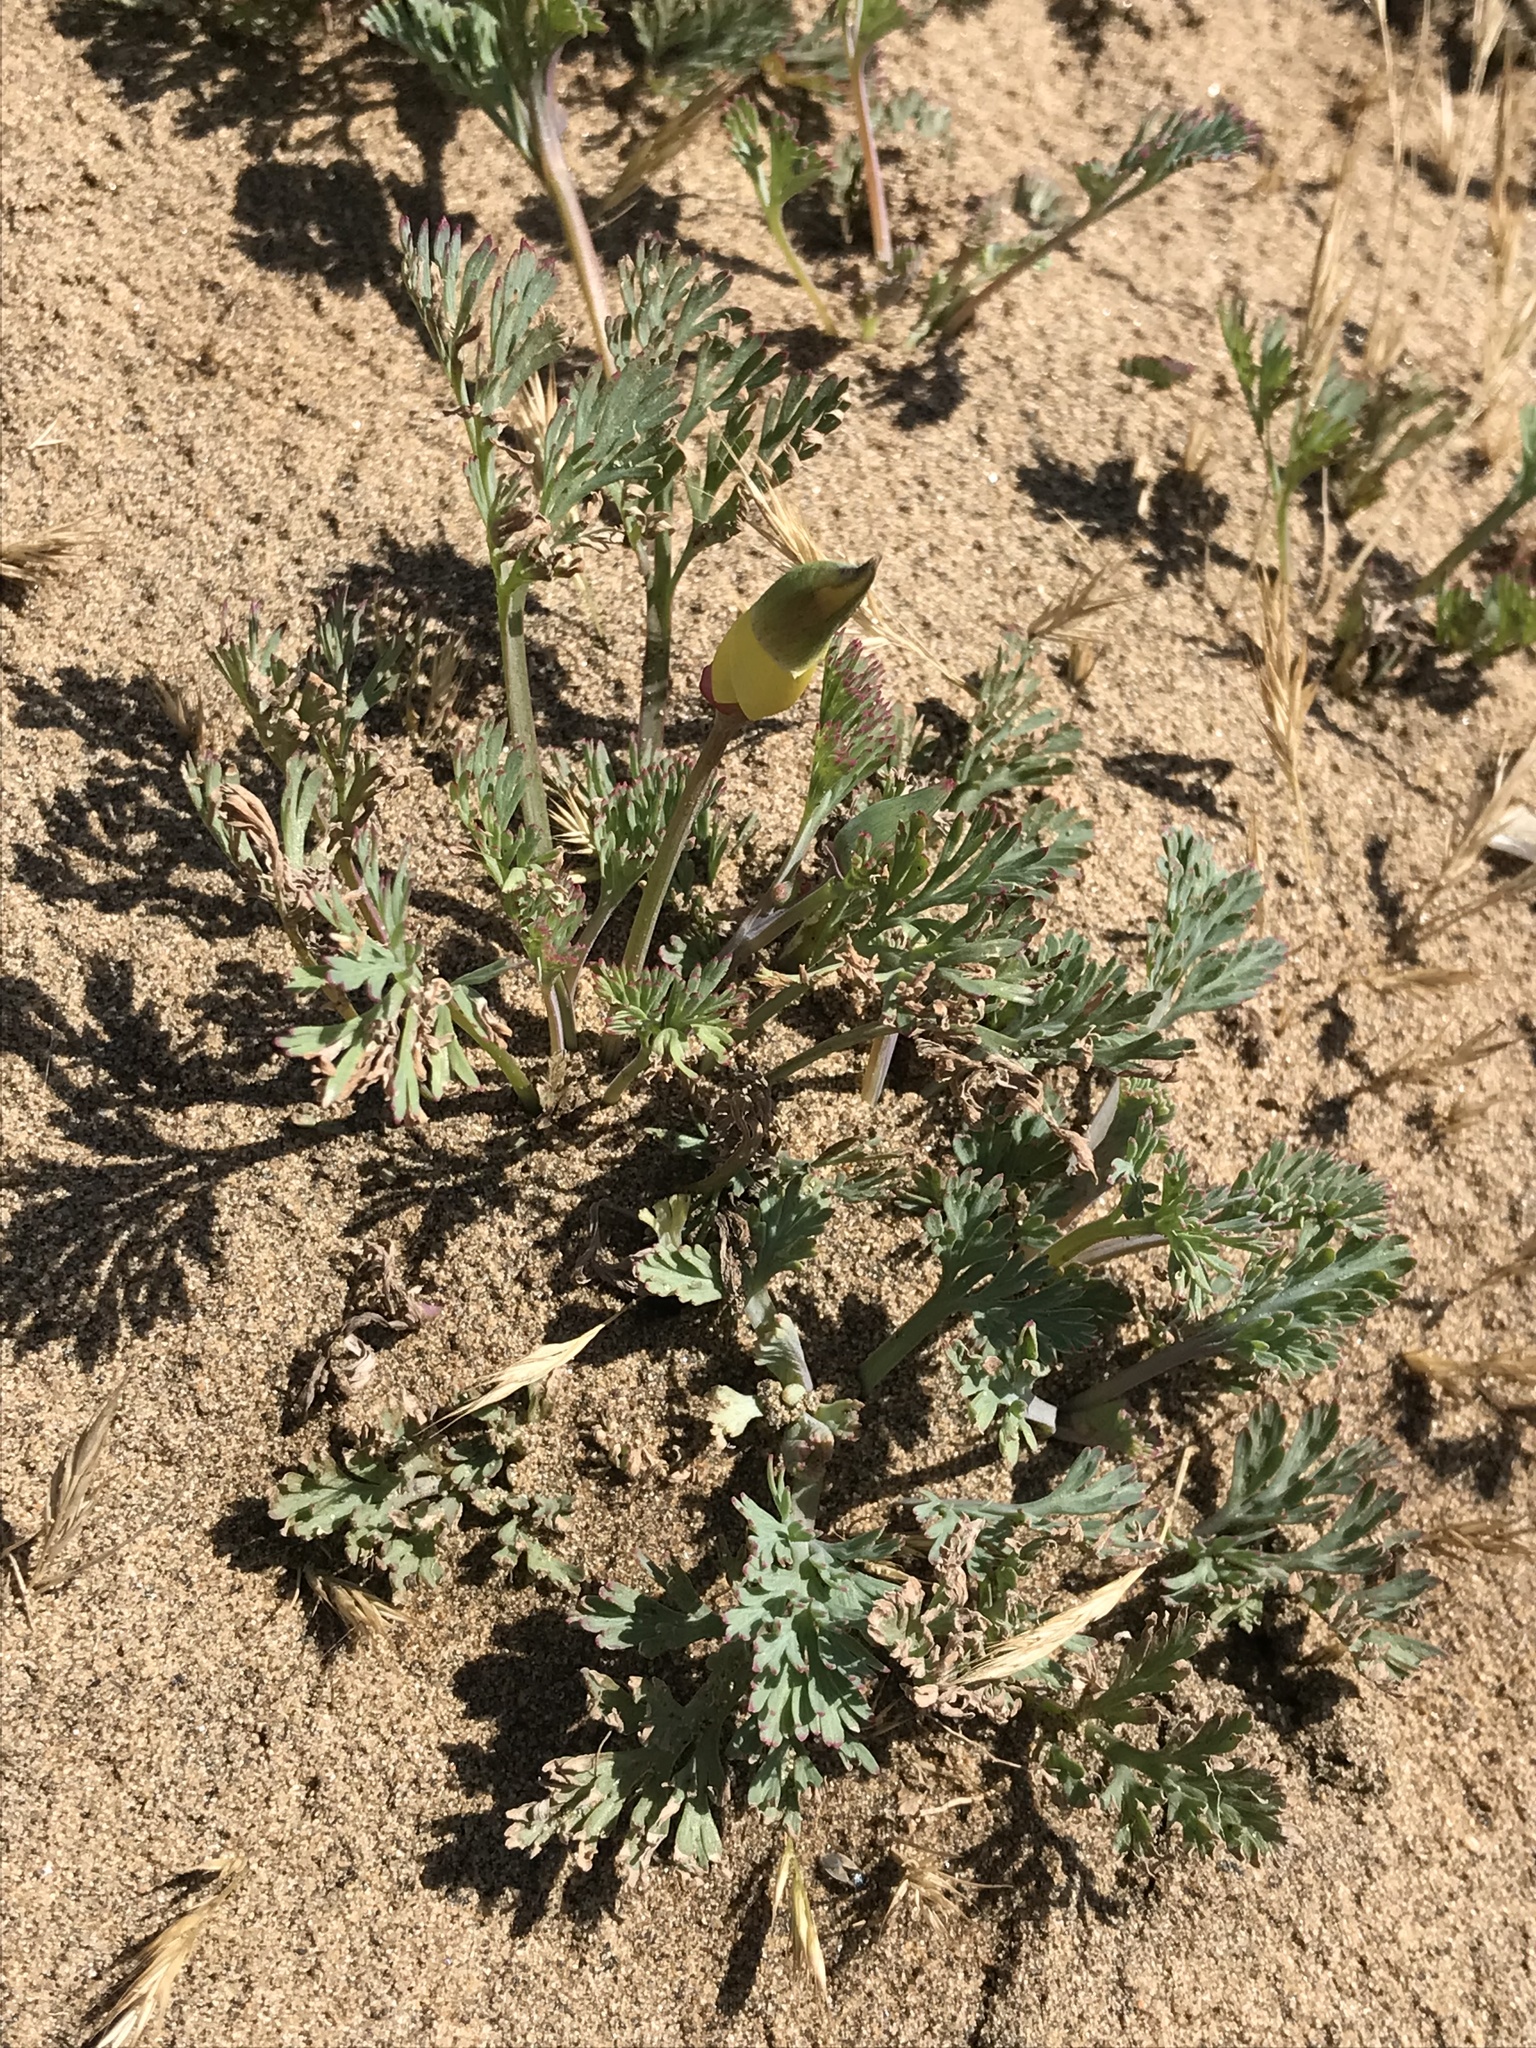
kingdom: Plantae
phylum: Tracheophyta
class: Magnoliopsida
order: Ranunculales
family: Papaveraceae
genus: Eschscholzia
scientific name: Eschscholzia californica
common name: California poppy
